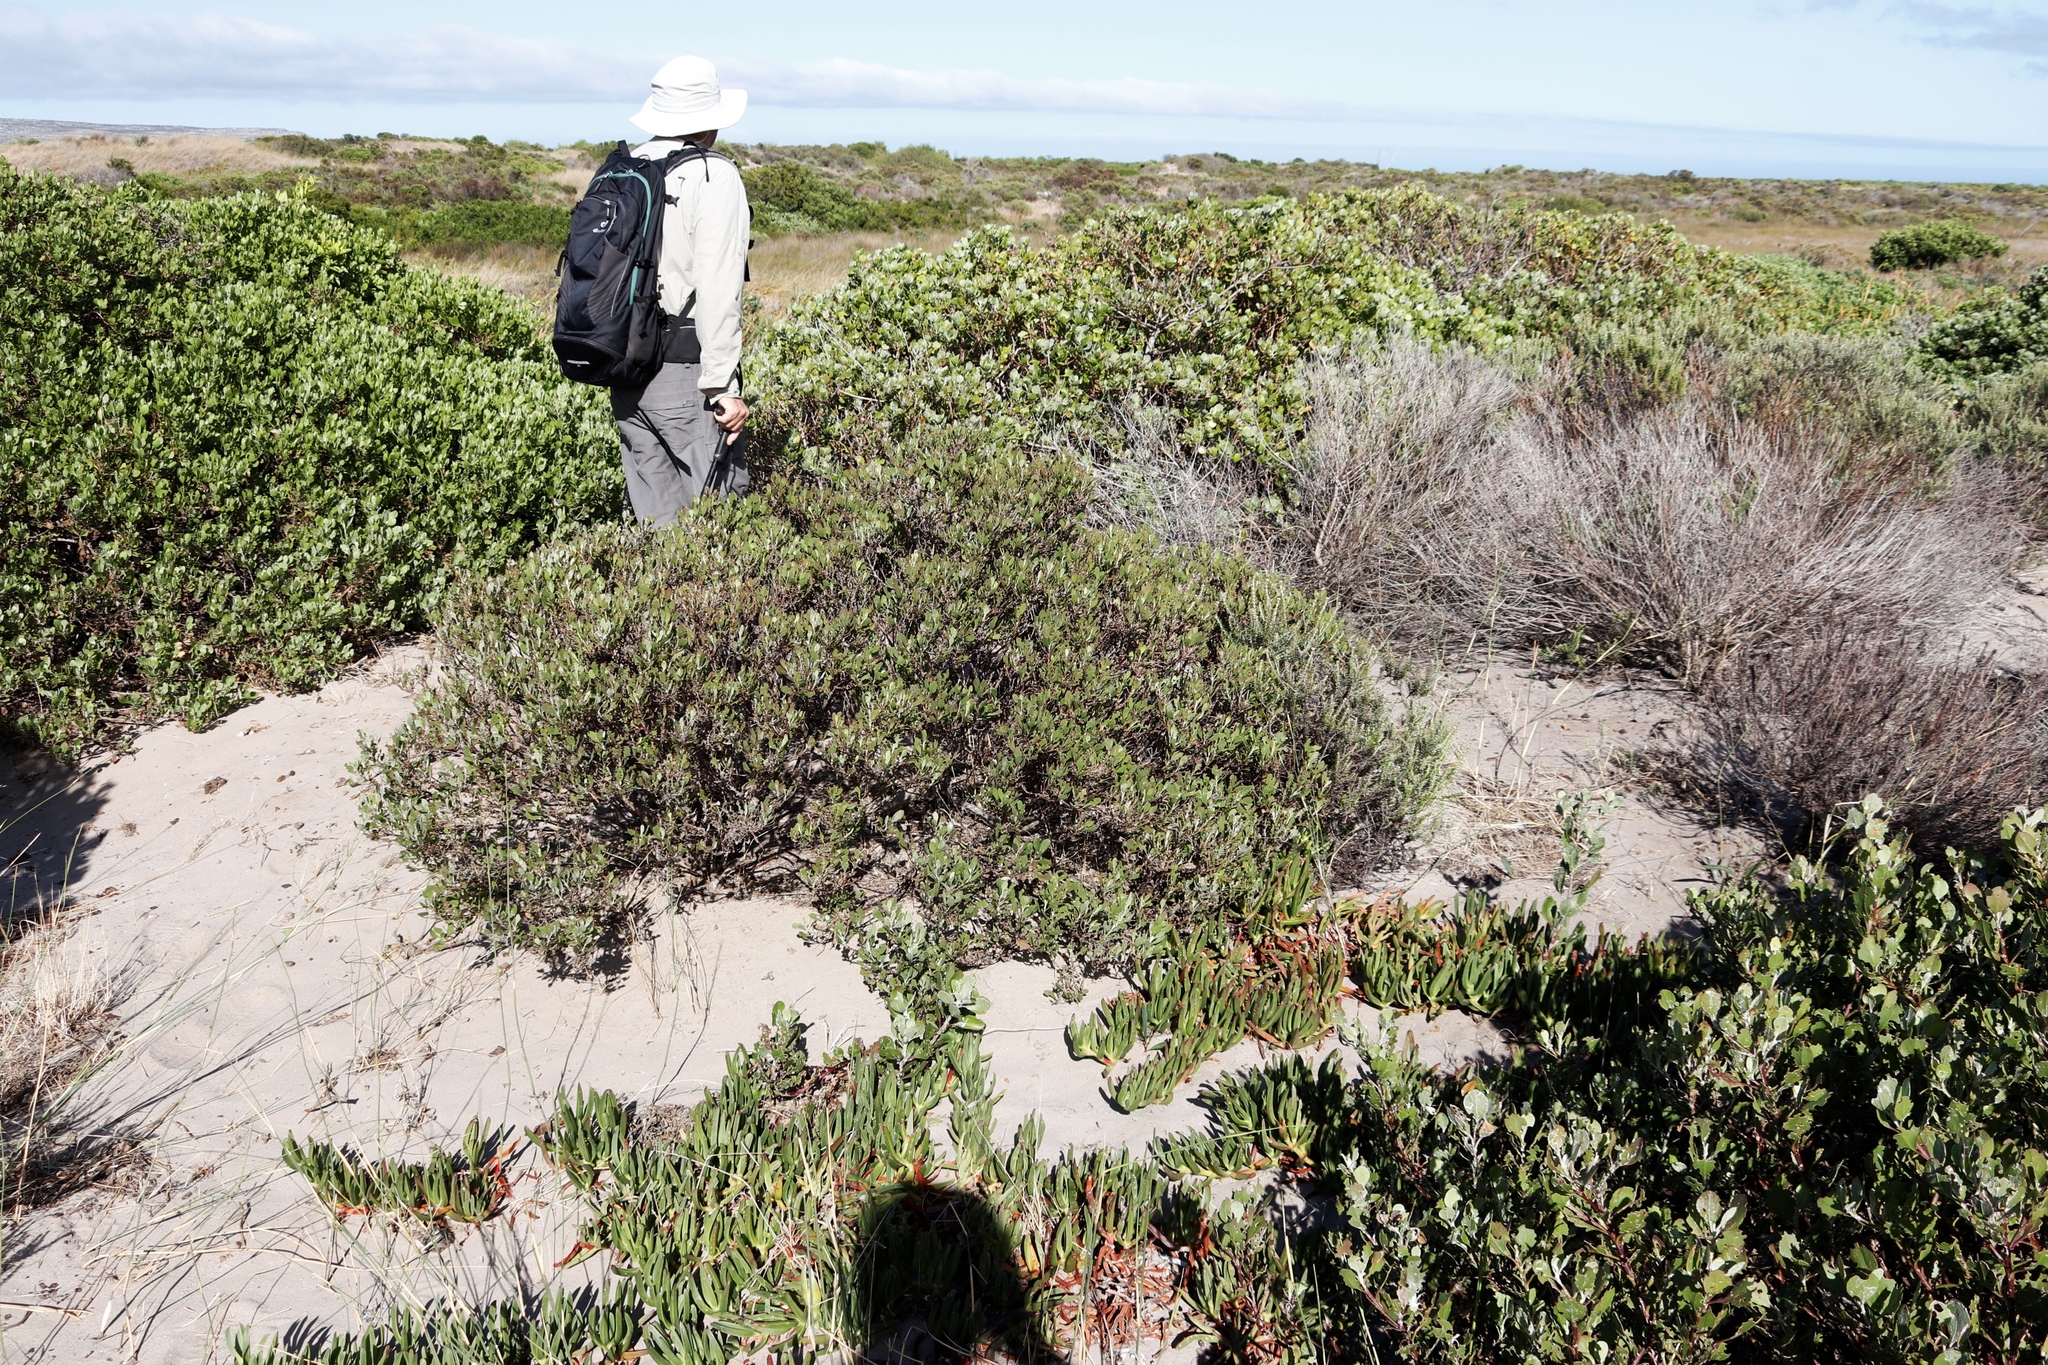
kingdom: Plantae
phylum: Tracheophyta
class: Magnoliopsida
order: Asterales
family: Asteraceae
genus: Osteospermum
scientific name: Osteospermum moniliferum
